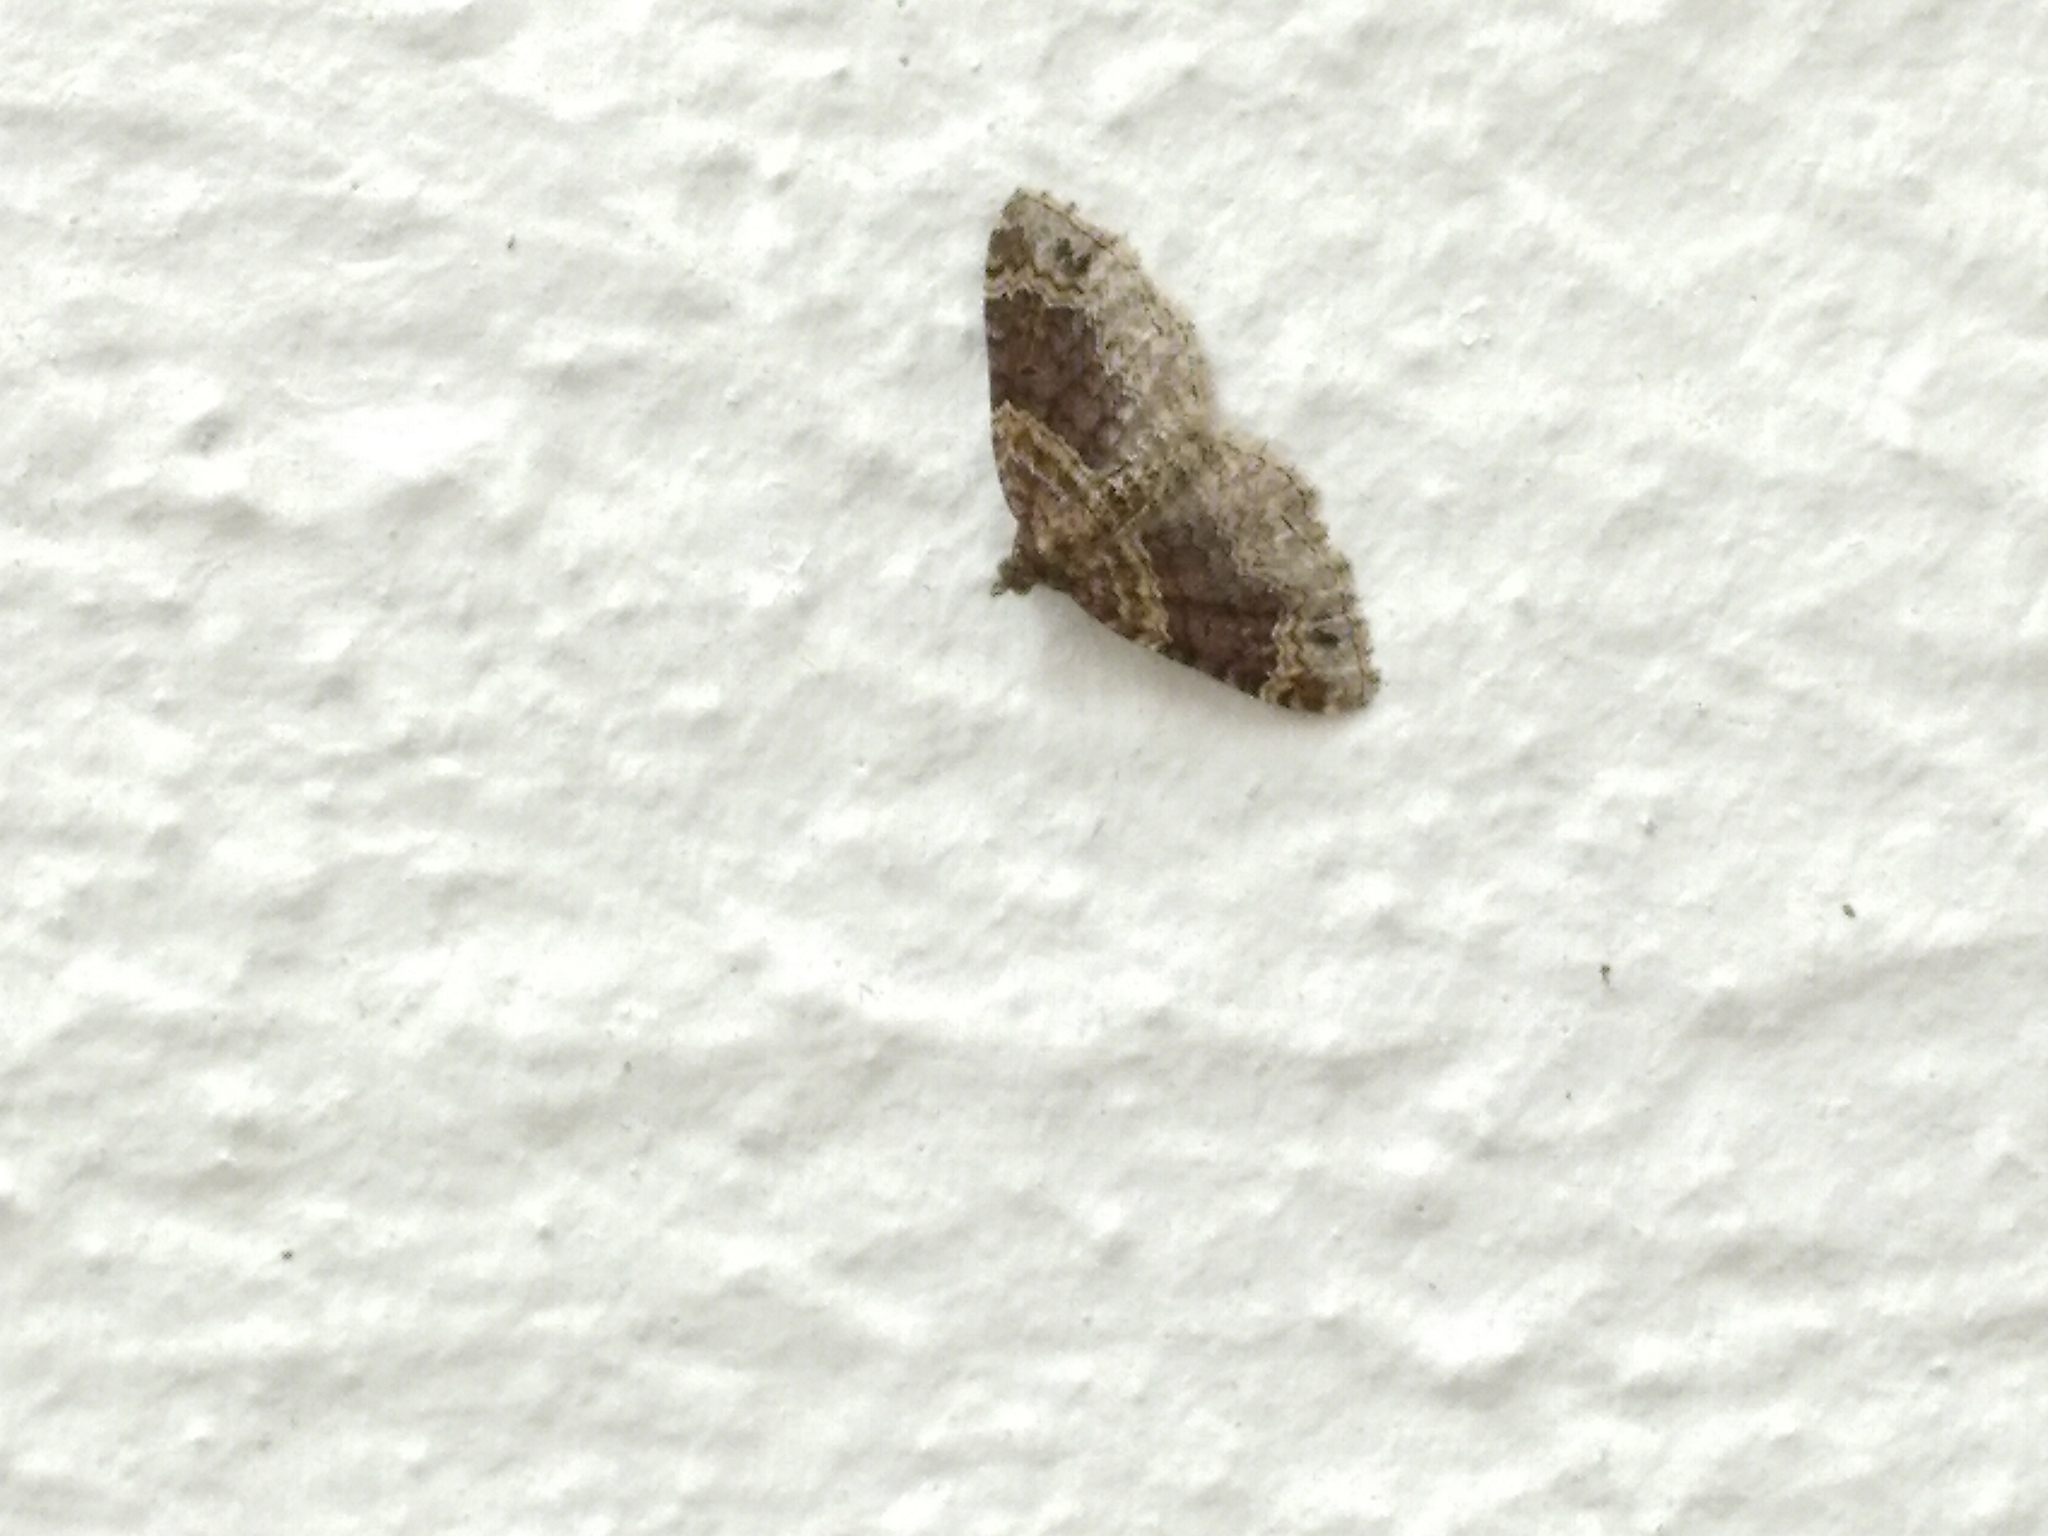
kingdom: Animalia
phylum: Arthropoda
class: Insecta
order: Lepidoptera
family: Geometridae
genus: Xanthorhoe
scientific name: Xanthorhoe ferrugata
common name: Dark-barred twin-spot carpet
